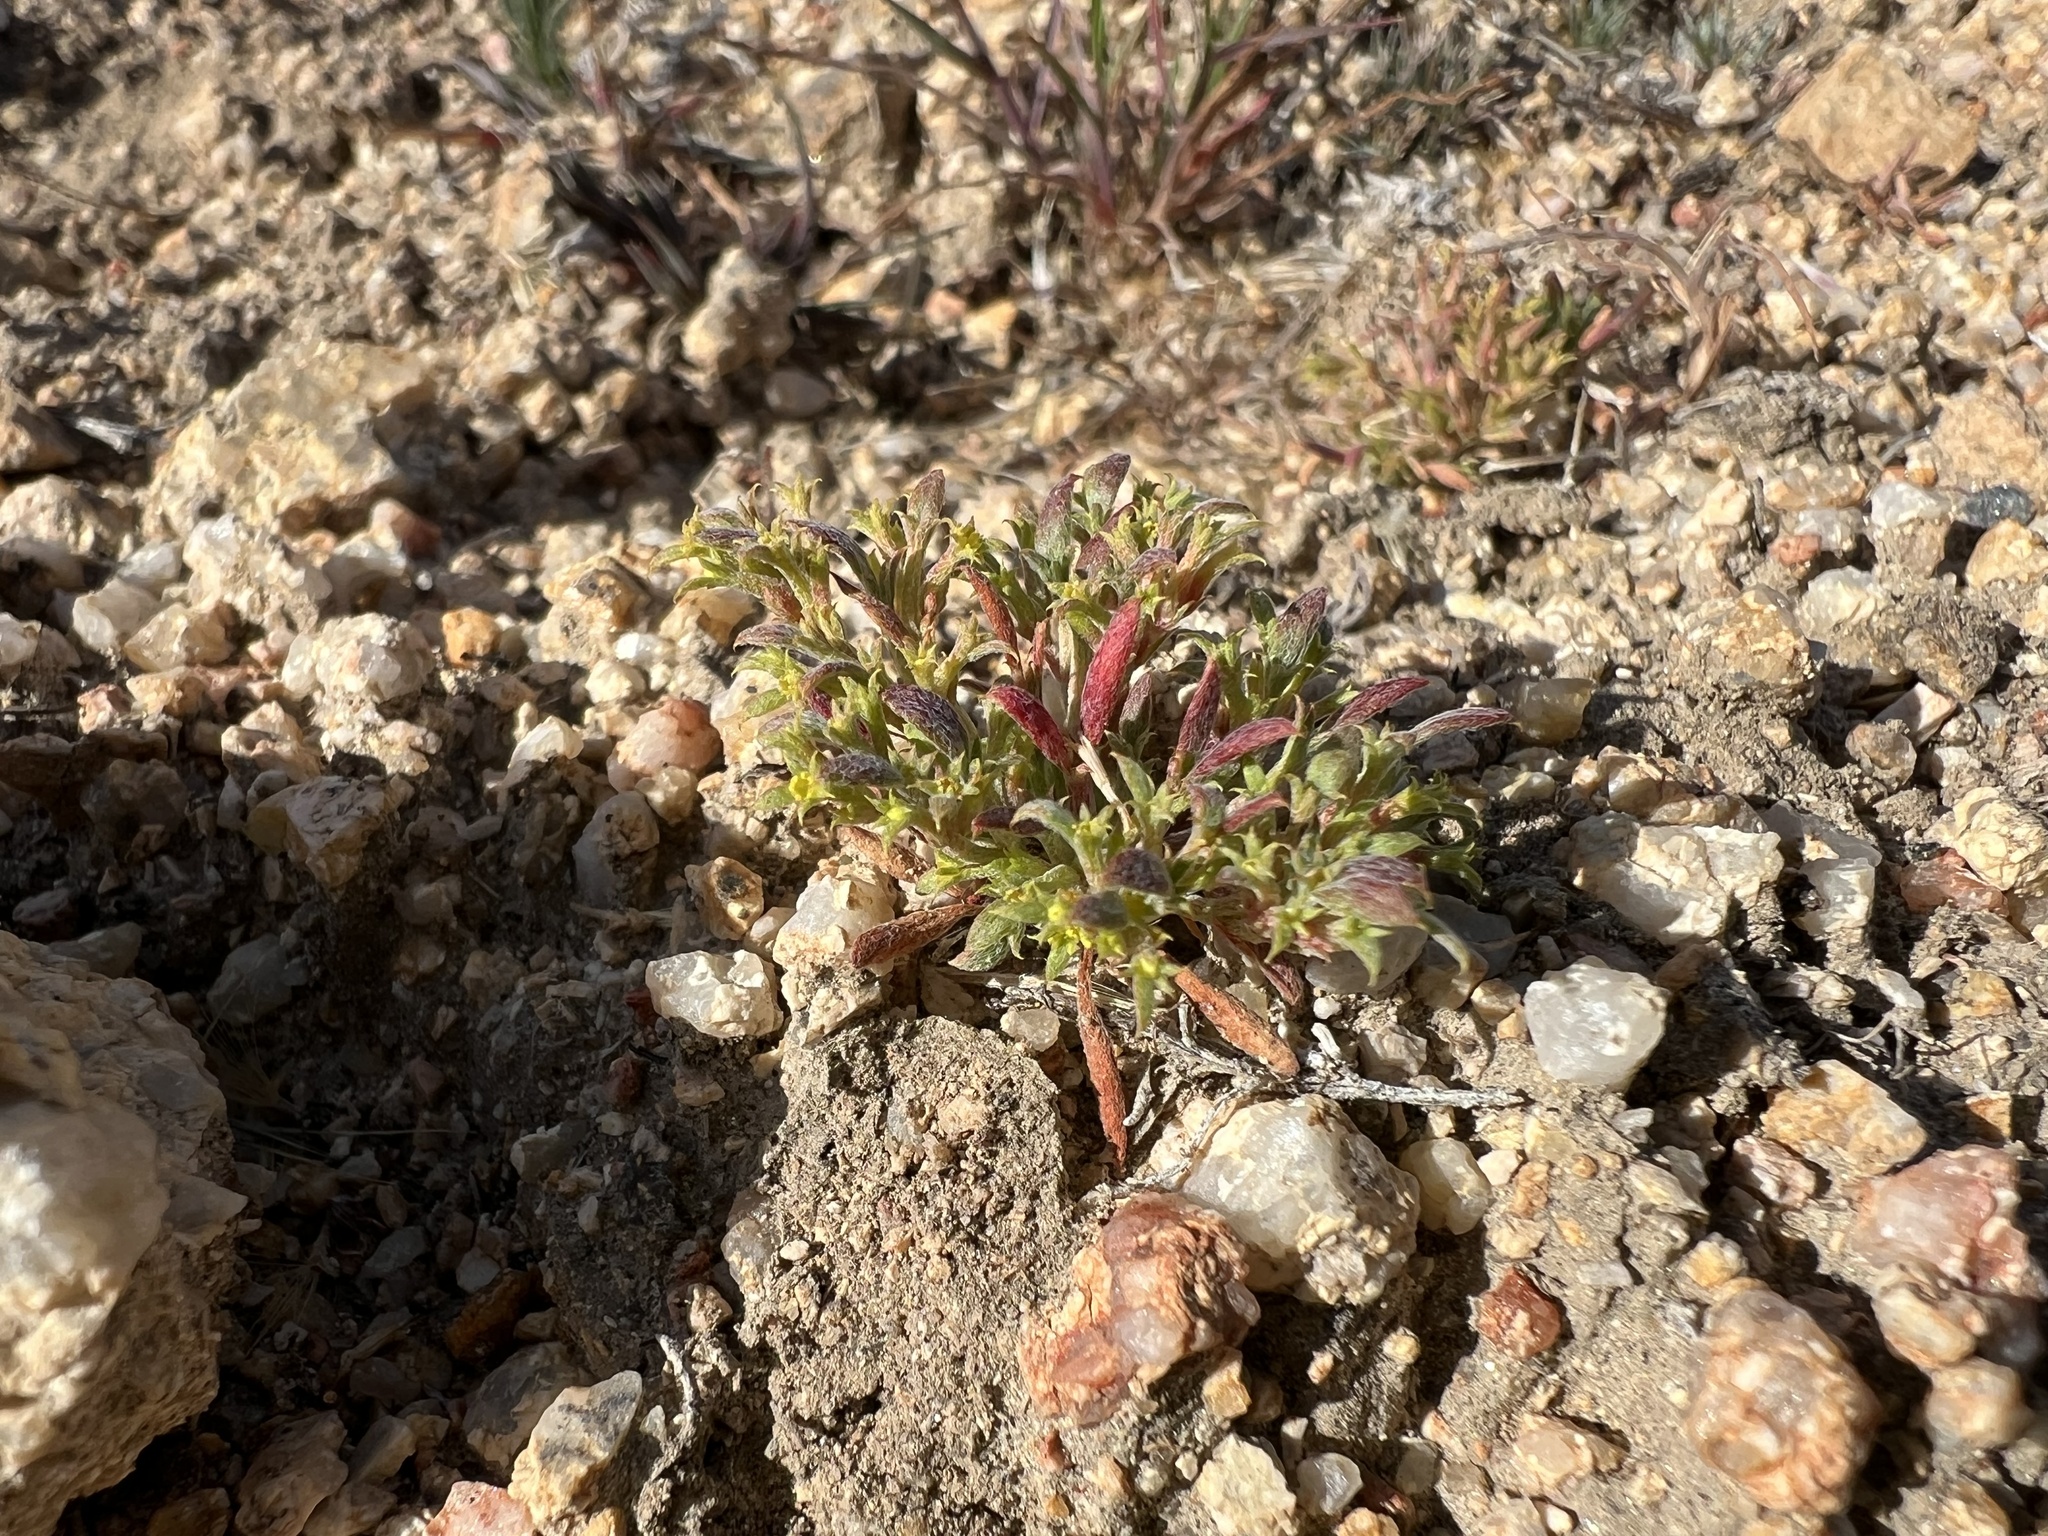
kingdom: Plantae
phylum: Tracheophyta
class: Magnoliopsida
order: Caryophyllales
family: Polygonaceae
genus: Chorizanthe
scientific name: Chorizanthe watsonii
